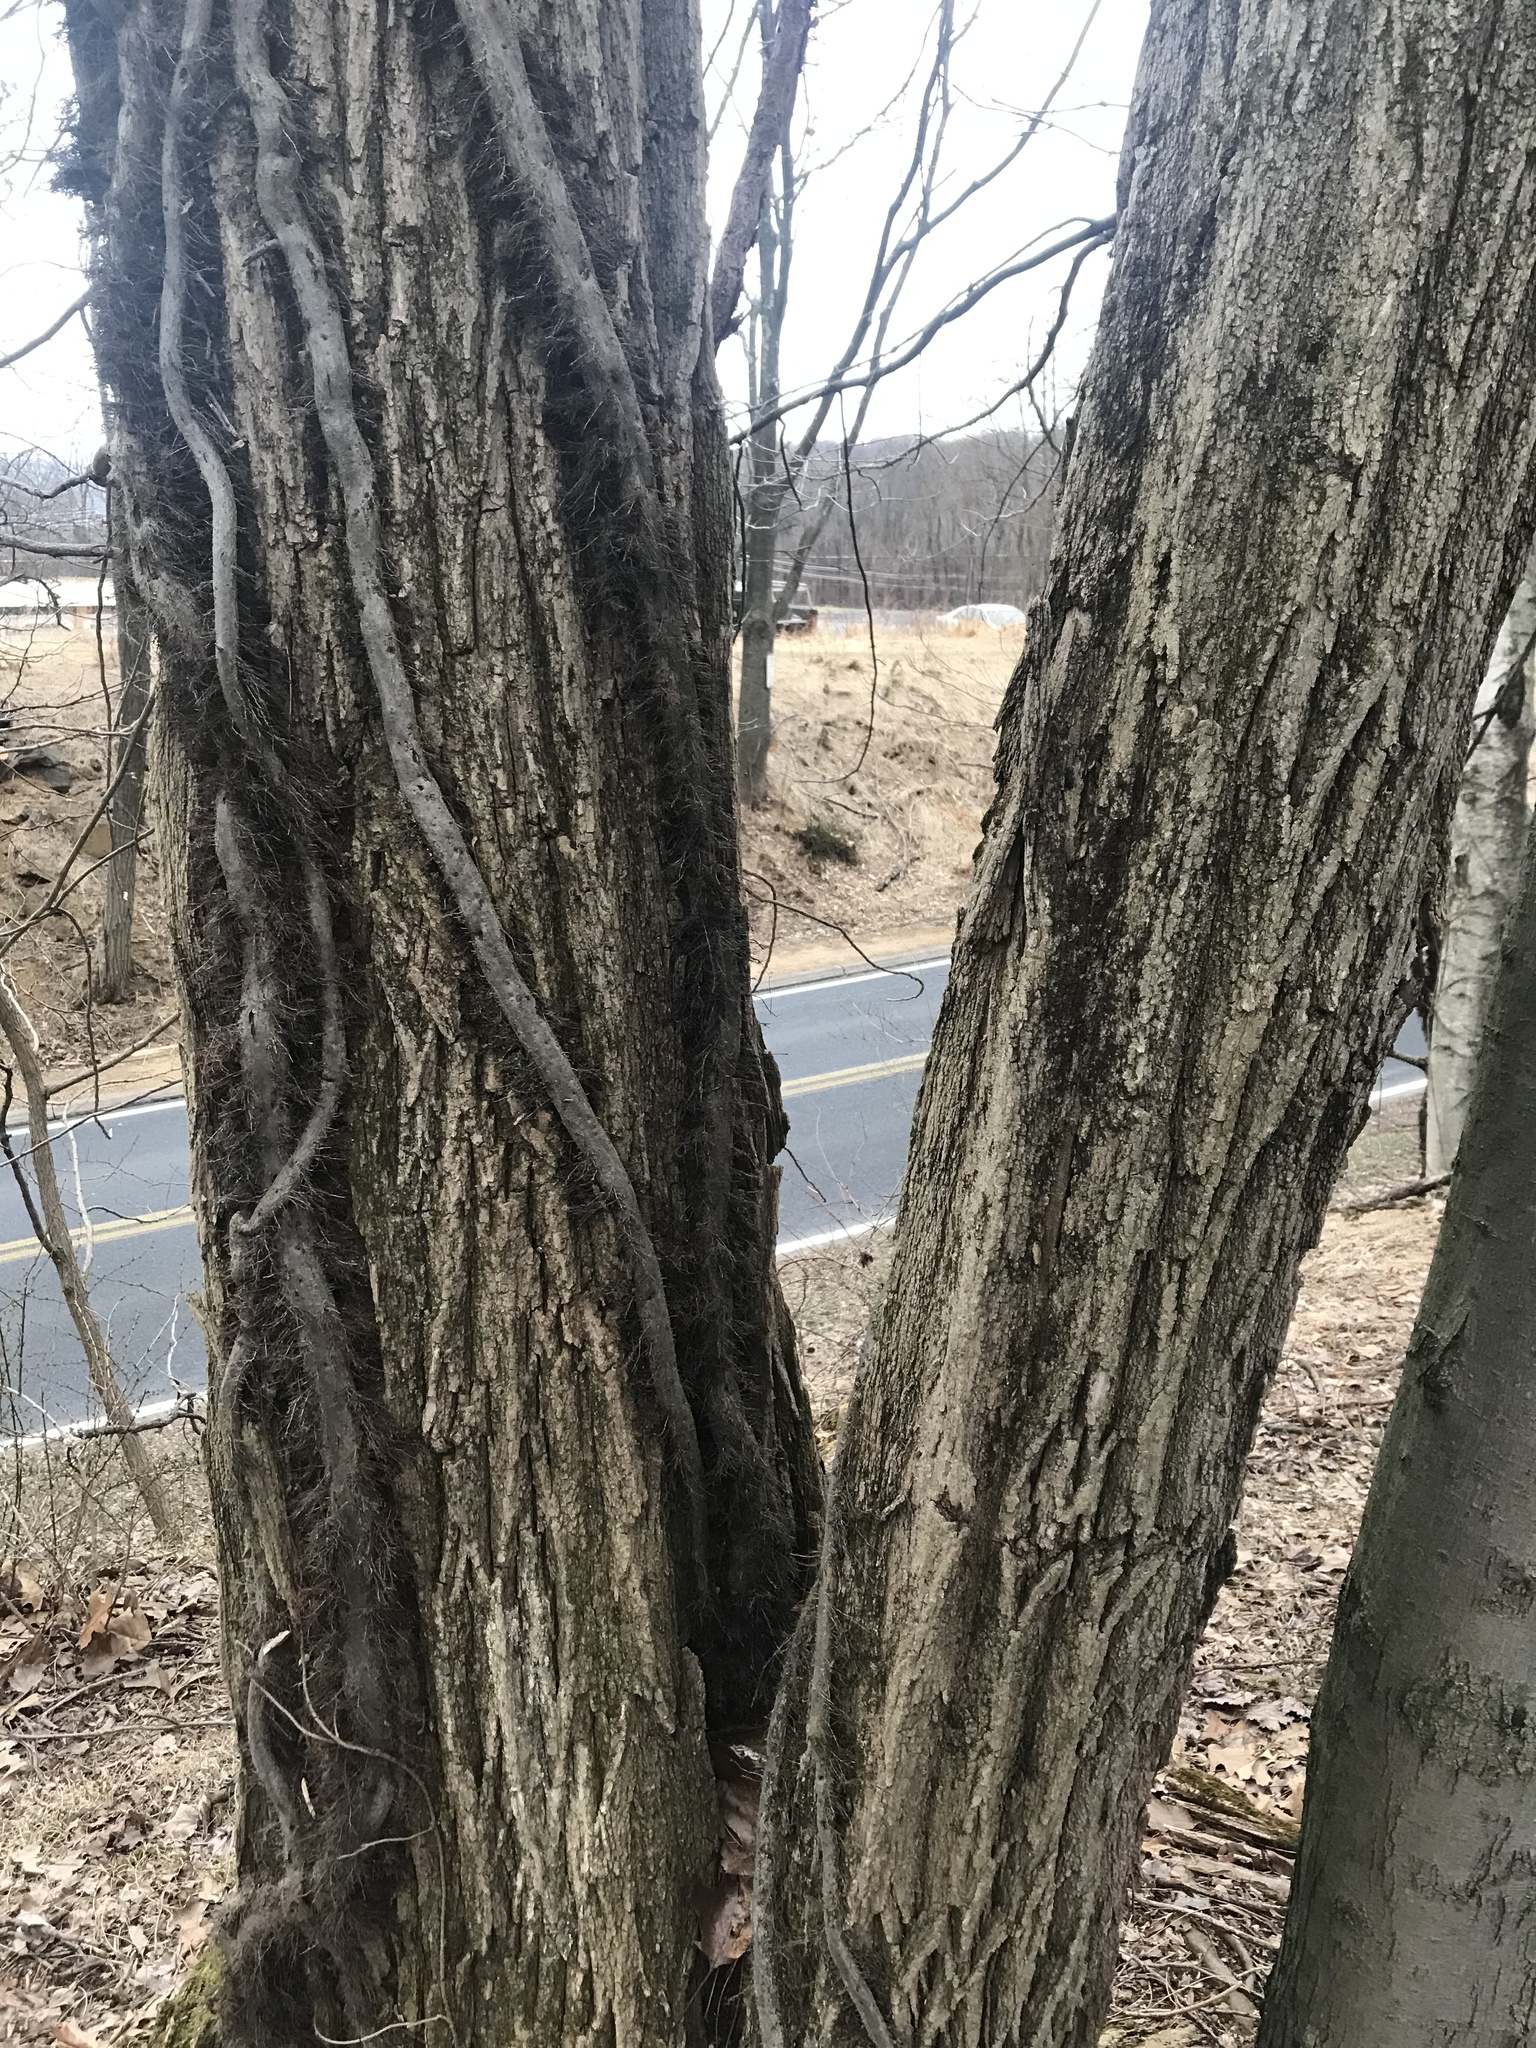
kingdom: Plantae
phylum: Tracheophyta
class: Magnoliopsida
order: Fabales
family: Fabaceae
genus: Robinia
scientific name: Robinia pseudoacacia
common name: Black locust
